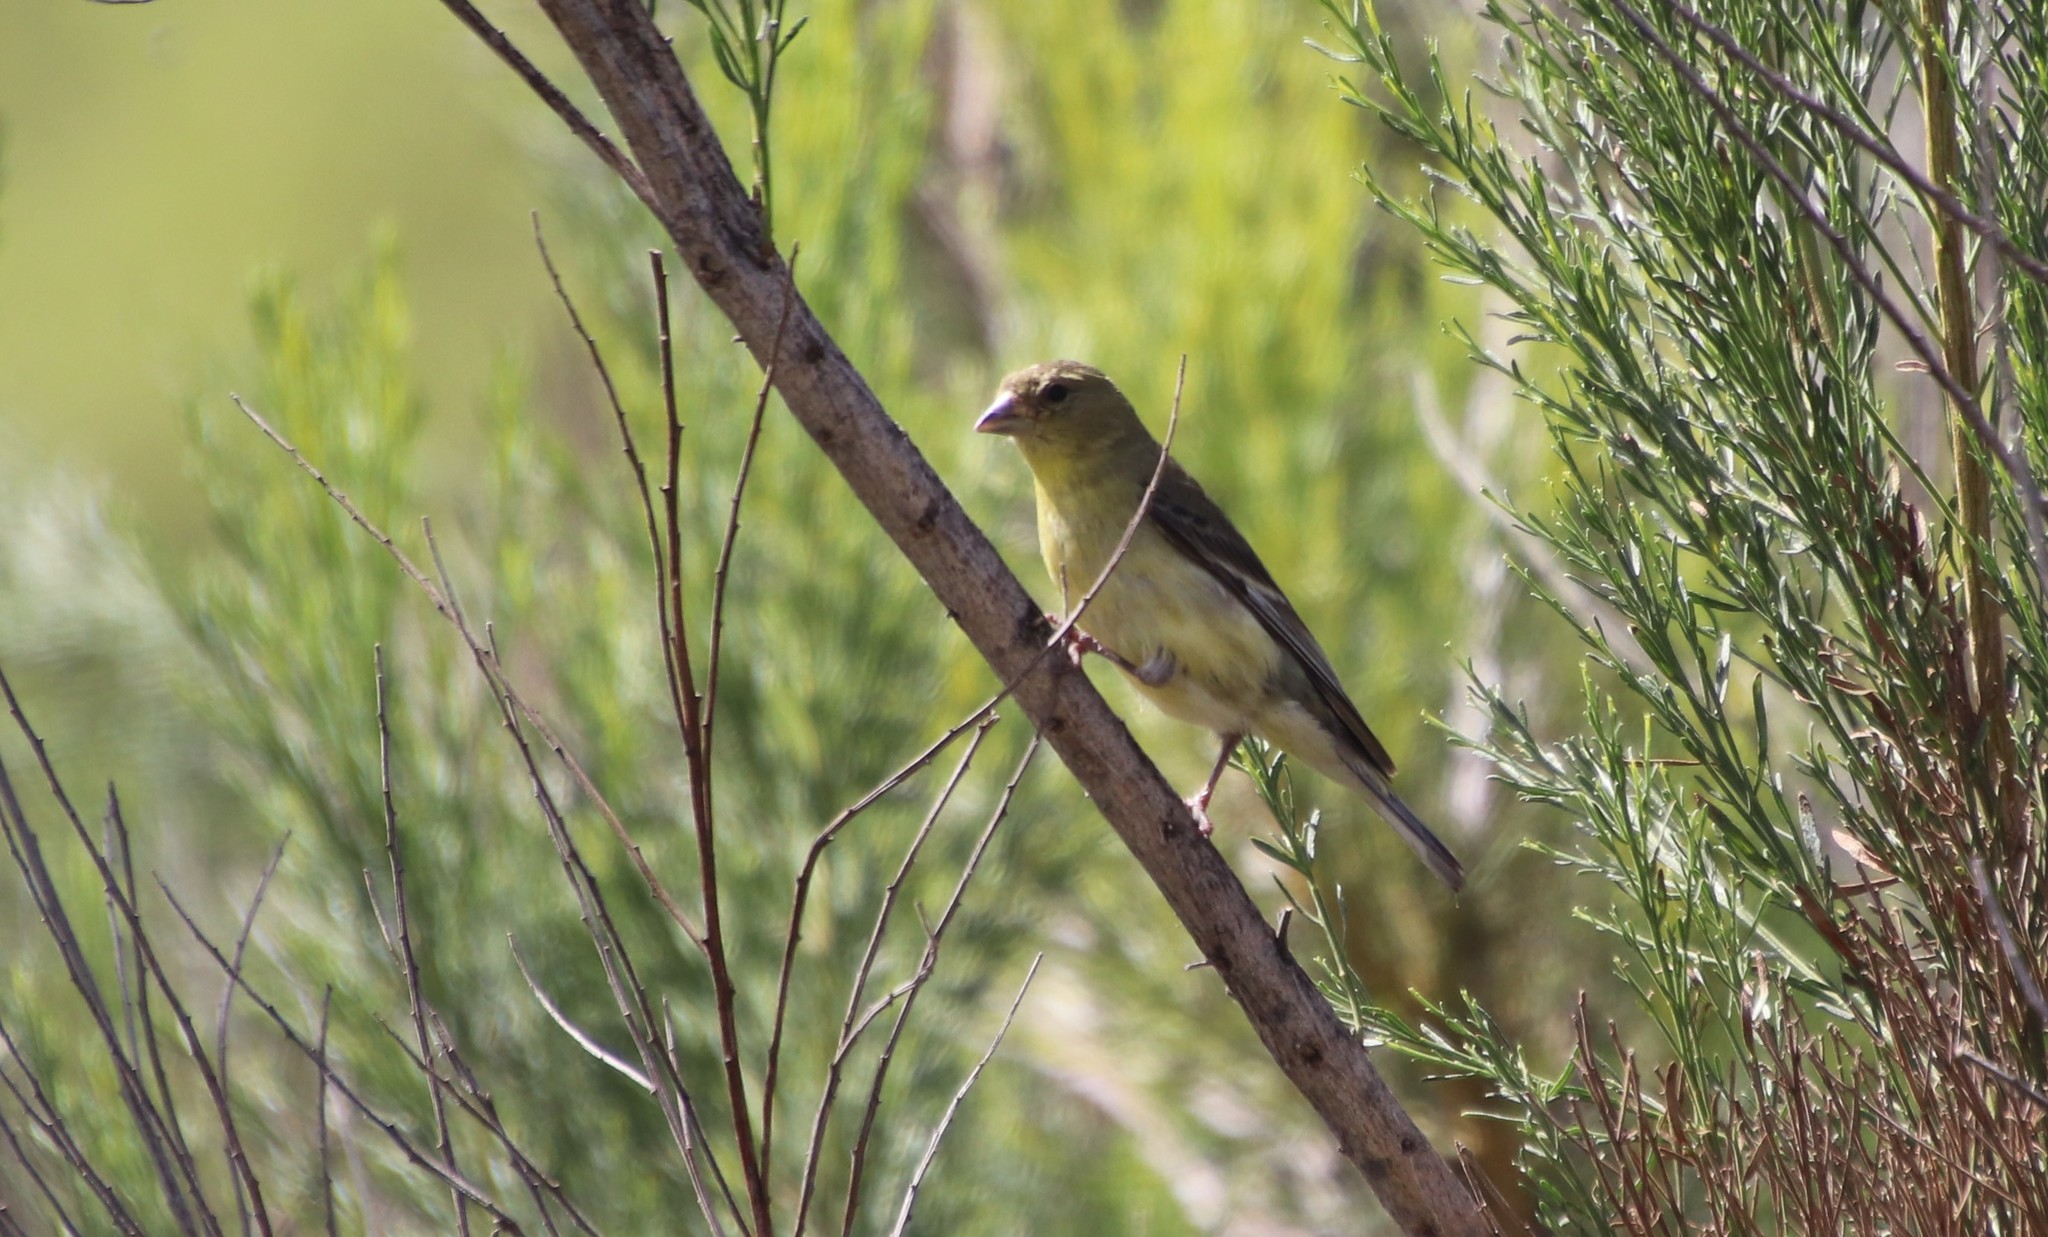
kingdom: Animalia
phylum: Chordata
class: Aves
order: Passeriformes
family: Fringillidae
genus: Spinus
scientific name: Spinus psaltria
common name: Lesser goldfinch
